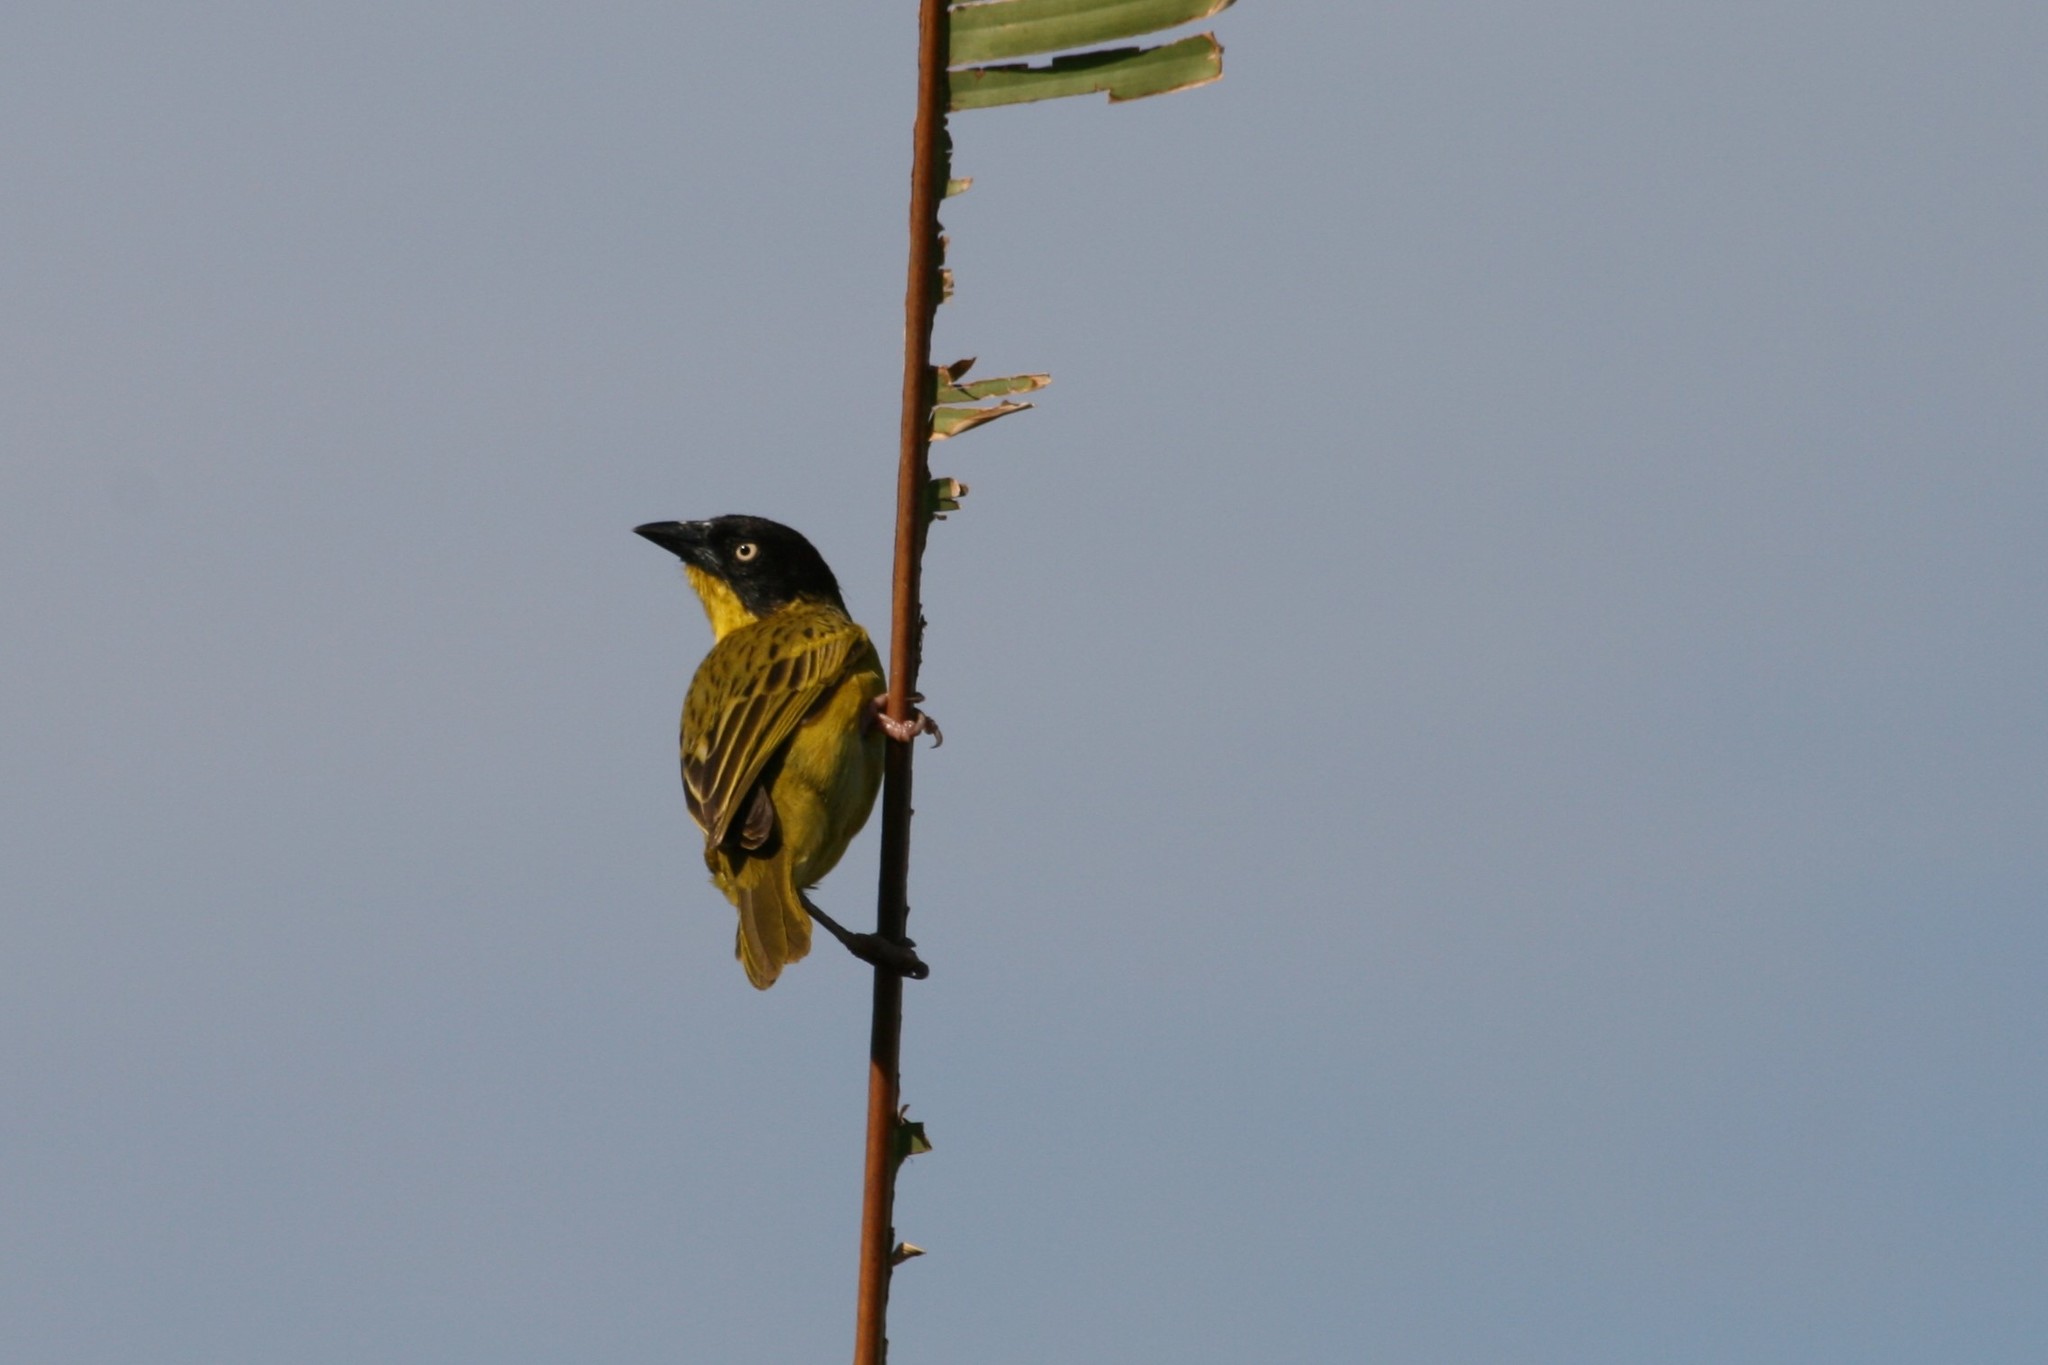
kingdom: Animalia
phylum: Chordata
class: Aves
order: Passeriformes
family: Ploceidae
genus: Ploceus
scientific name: Ploceus baglafecht
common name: Baglafecht weaver
